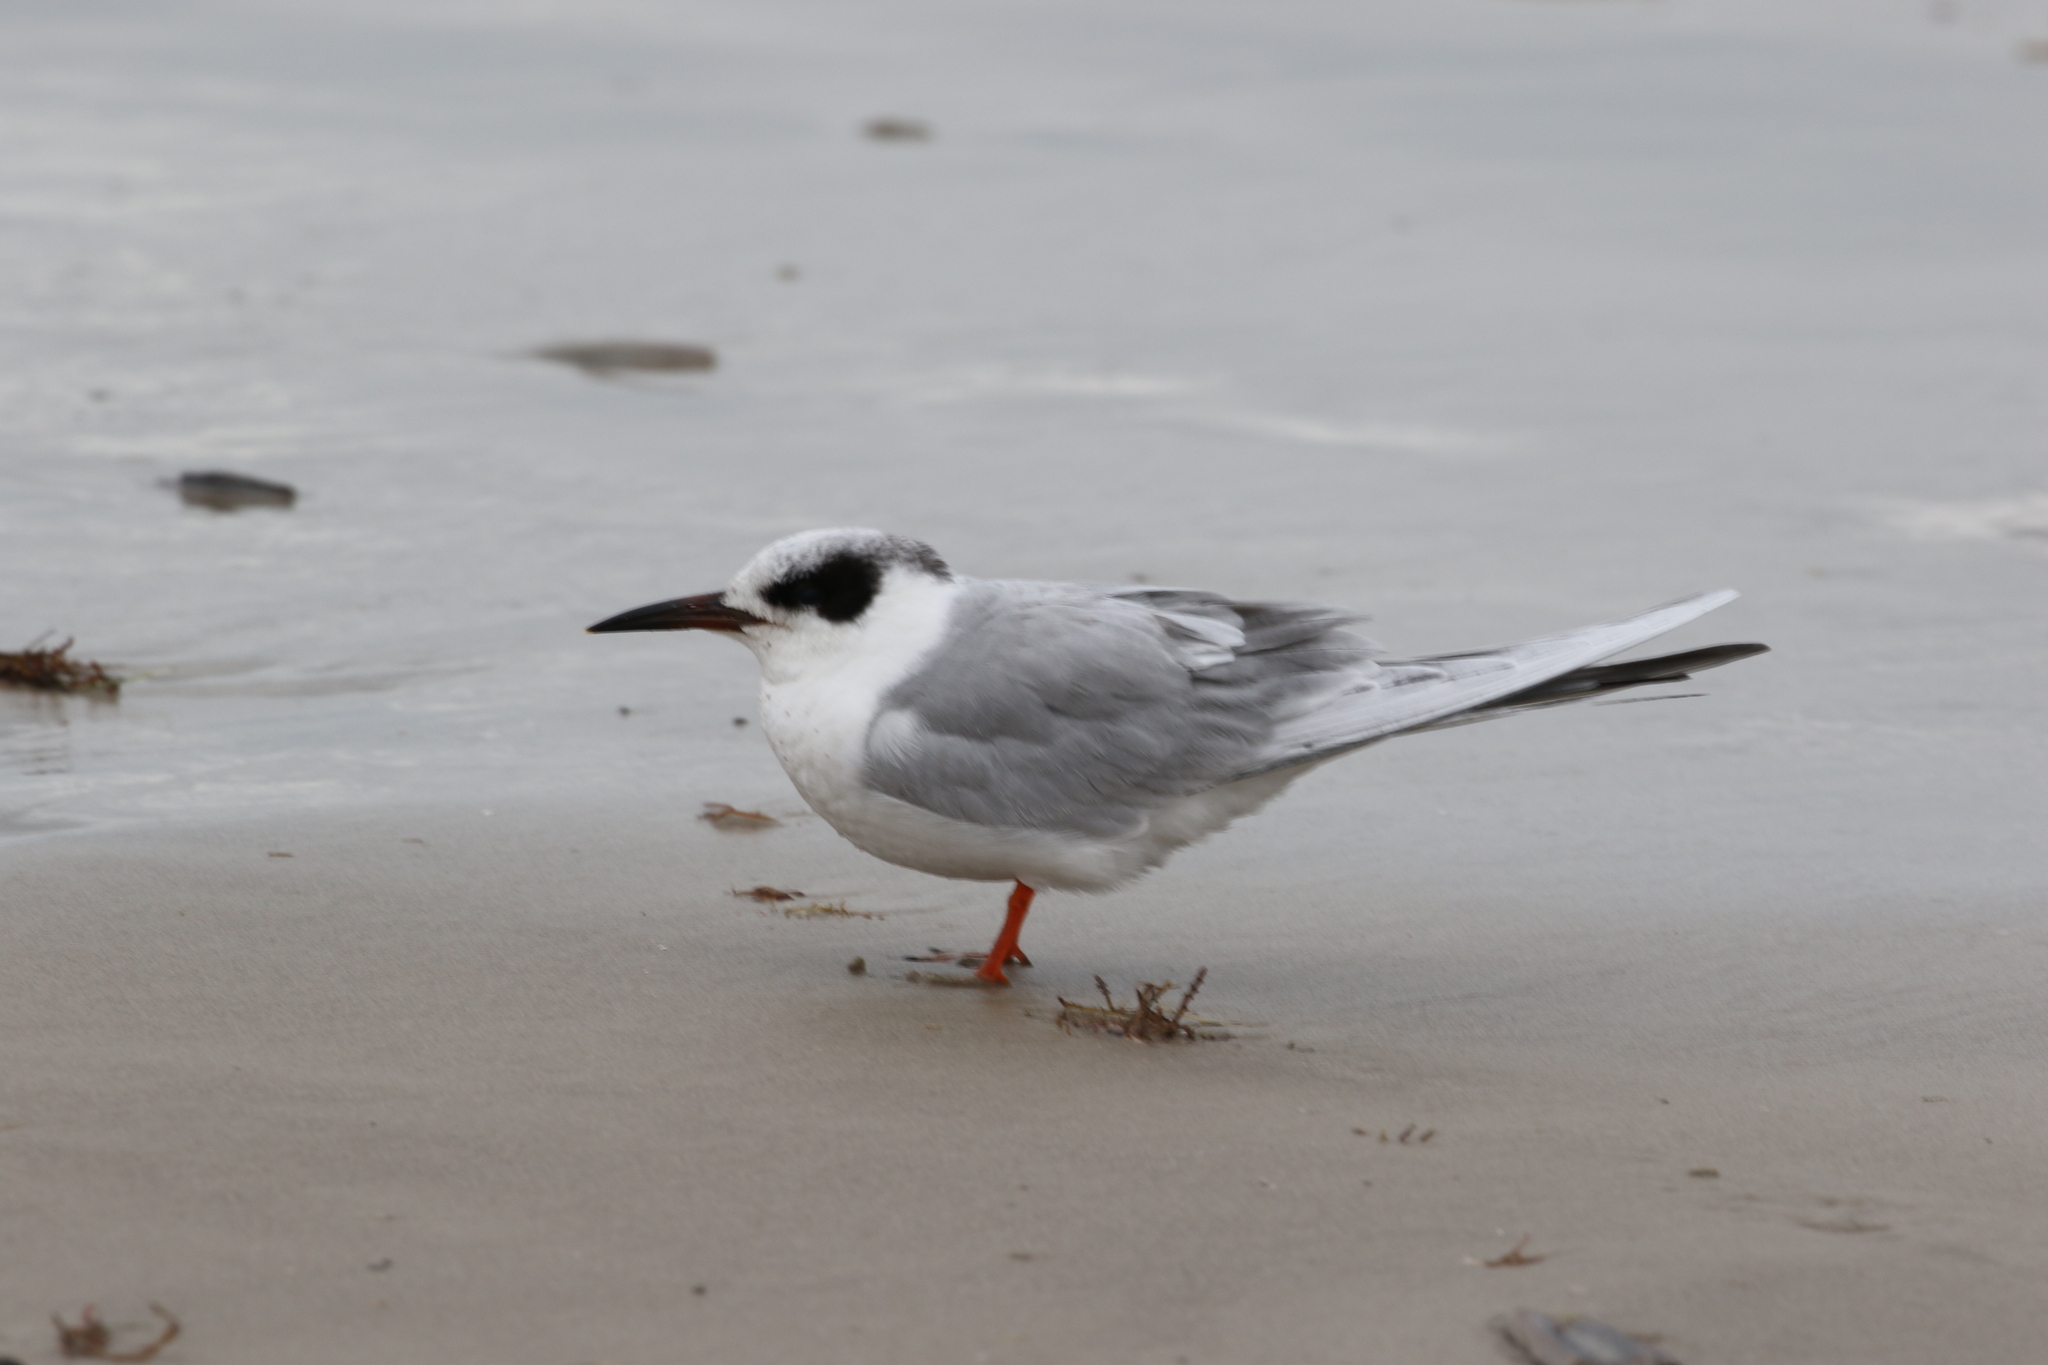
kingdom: Animalia
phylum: Chordata
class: Aves
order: Charadriiformes
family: Laridae
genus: Sterna
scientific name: Sterna forsteri
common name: Forster's tern
